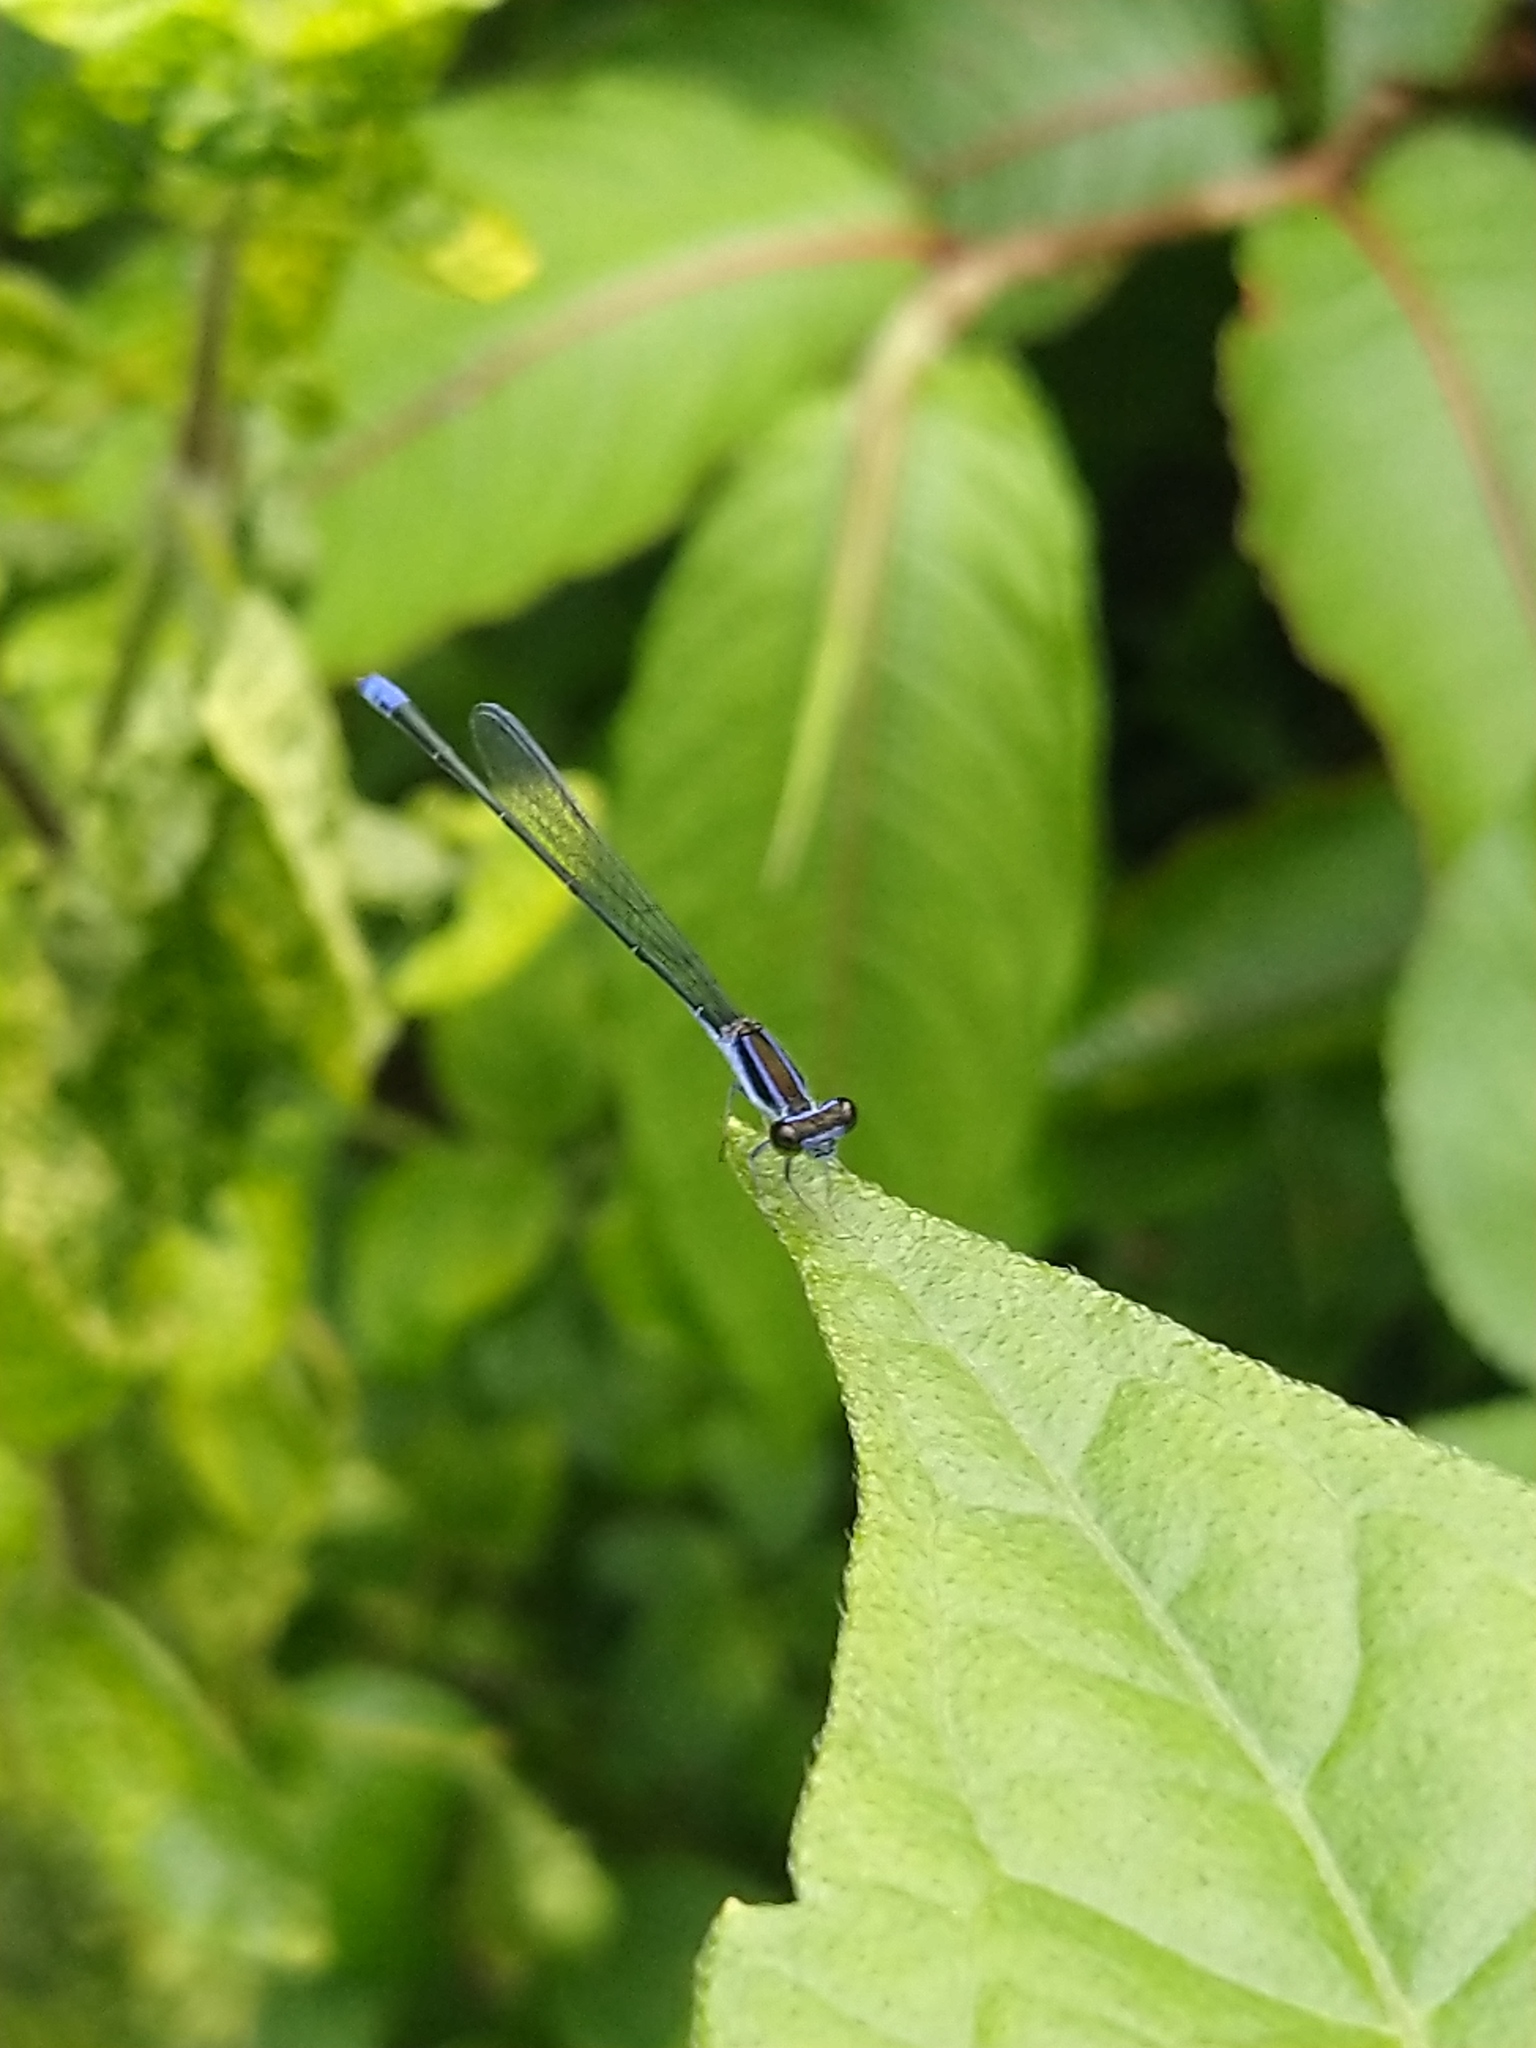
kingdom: Animalia
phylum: Arthropoda
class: Insecta
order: Odonata
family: Coenagrionidae
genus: Aciagrion
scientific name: Aciagrion approximans
